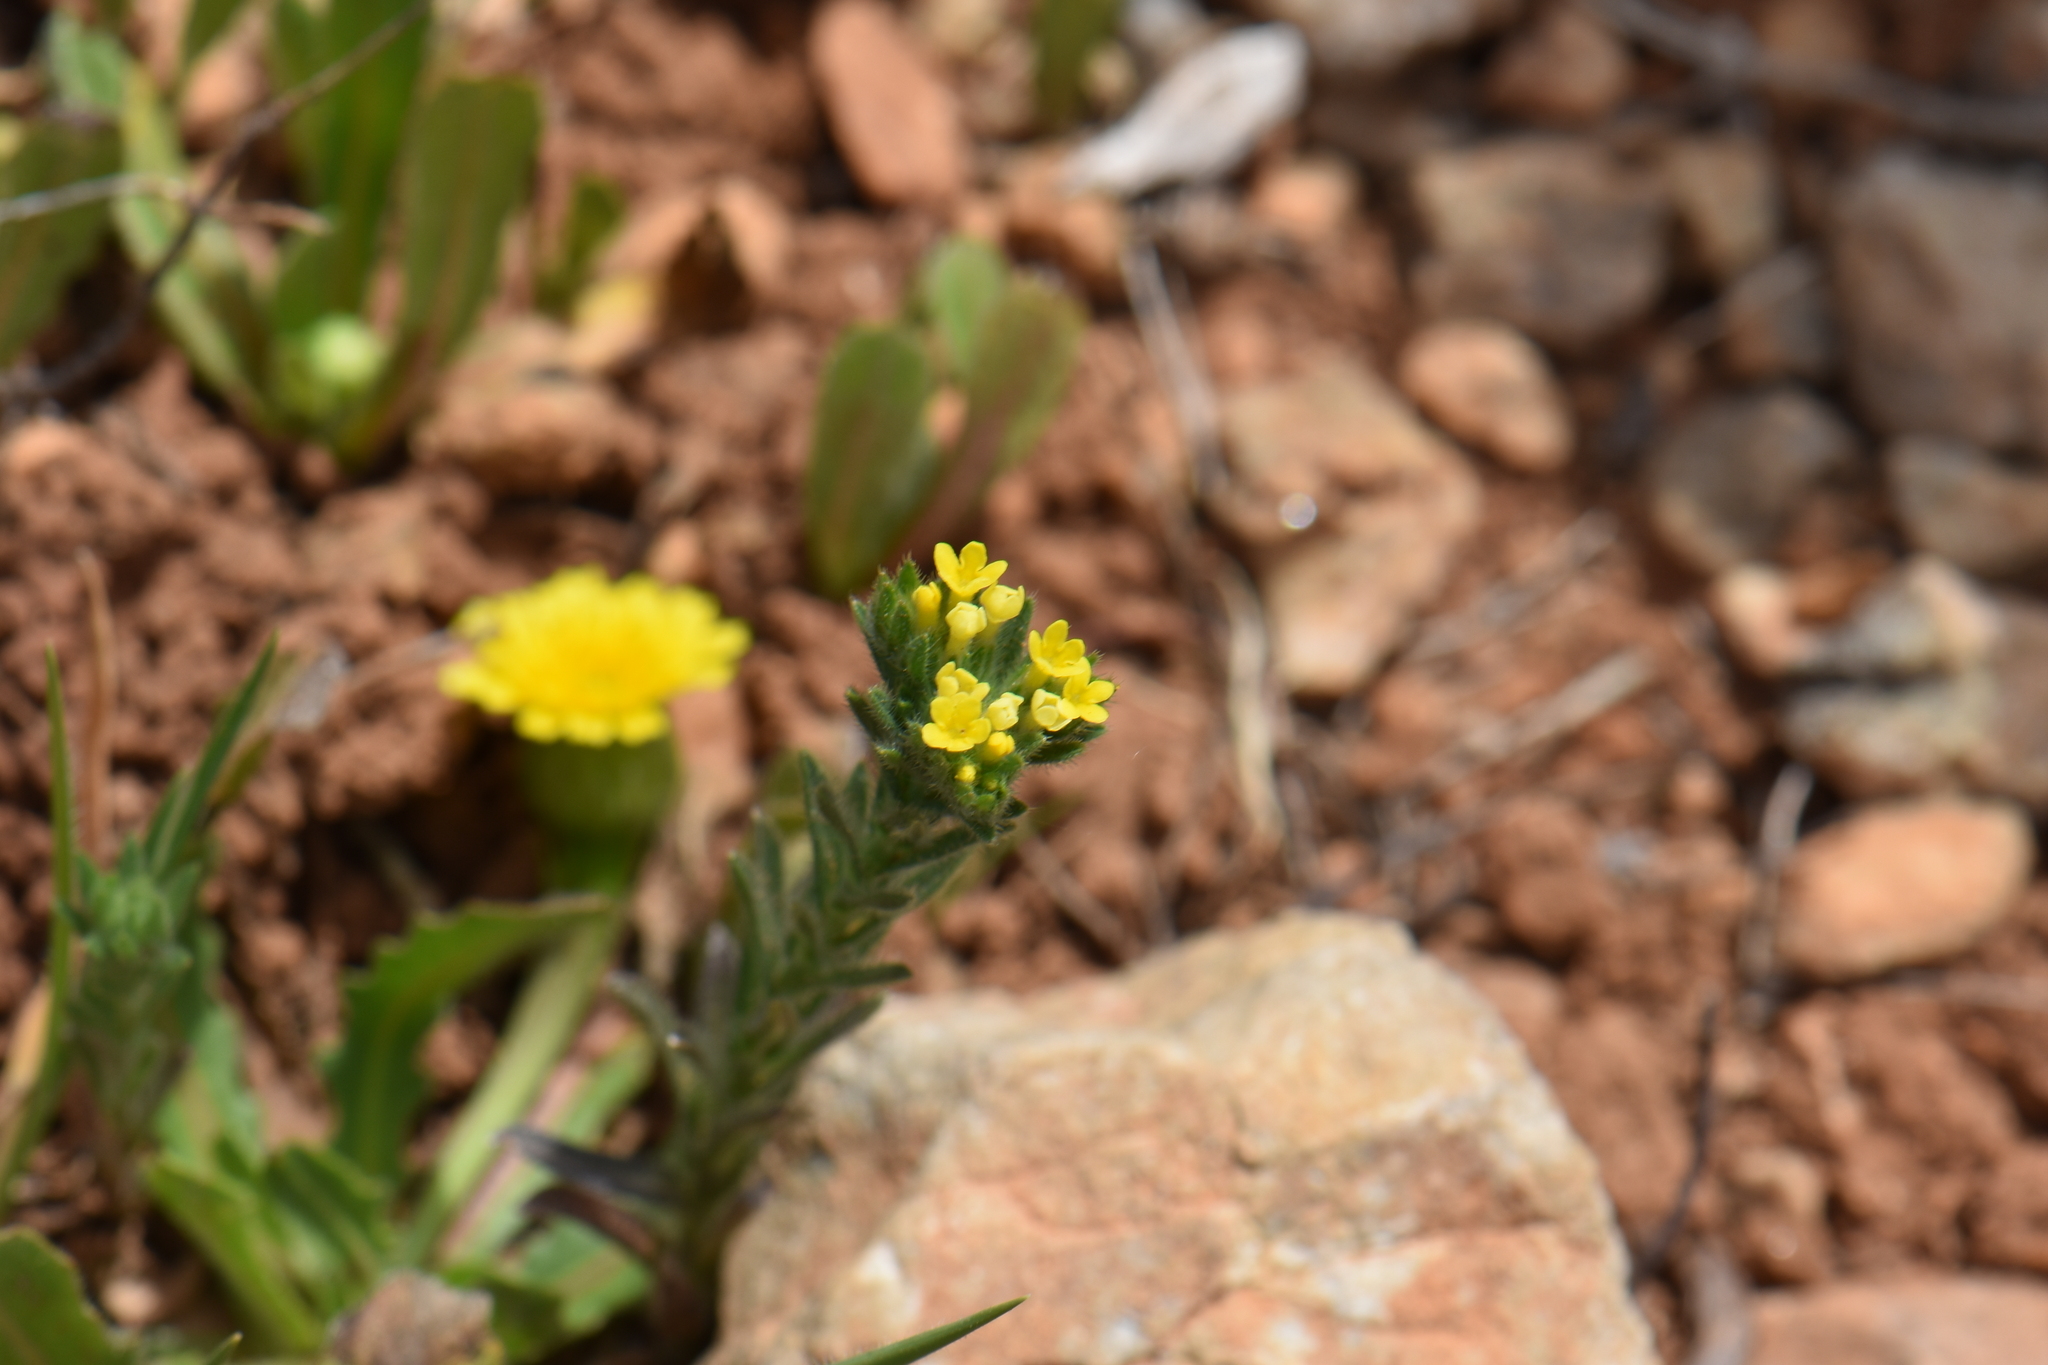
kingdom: Plantae
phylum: Tracheophyta
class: Magnoliopsida
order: Boraginales
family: Boraginaceae
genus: Neatostema
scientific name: Neatostema apulum
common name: Hairy sheepweed
